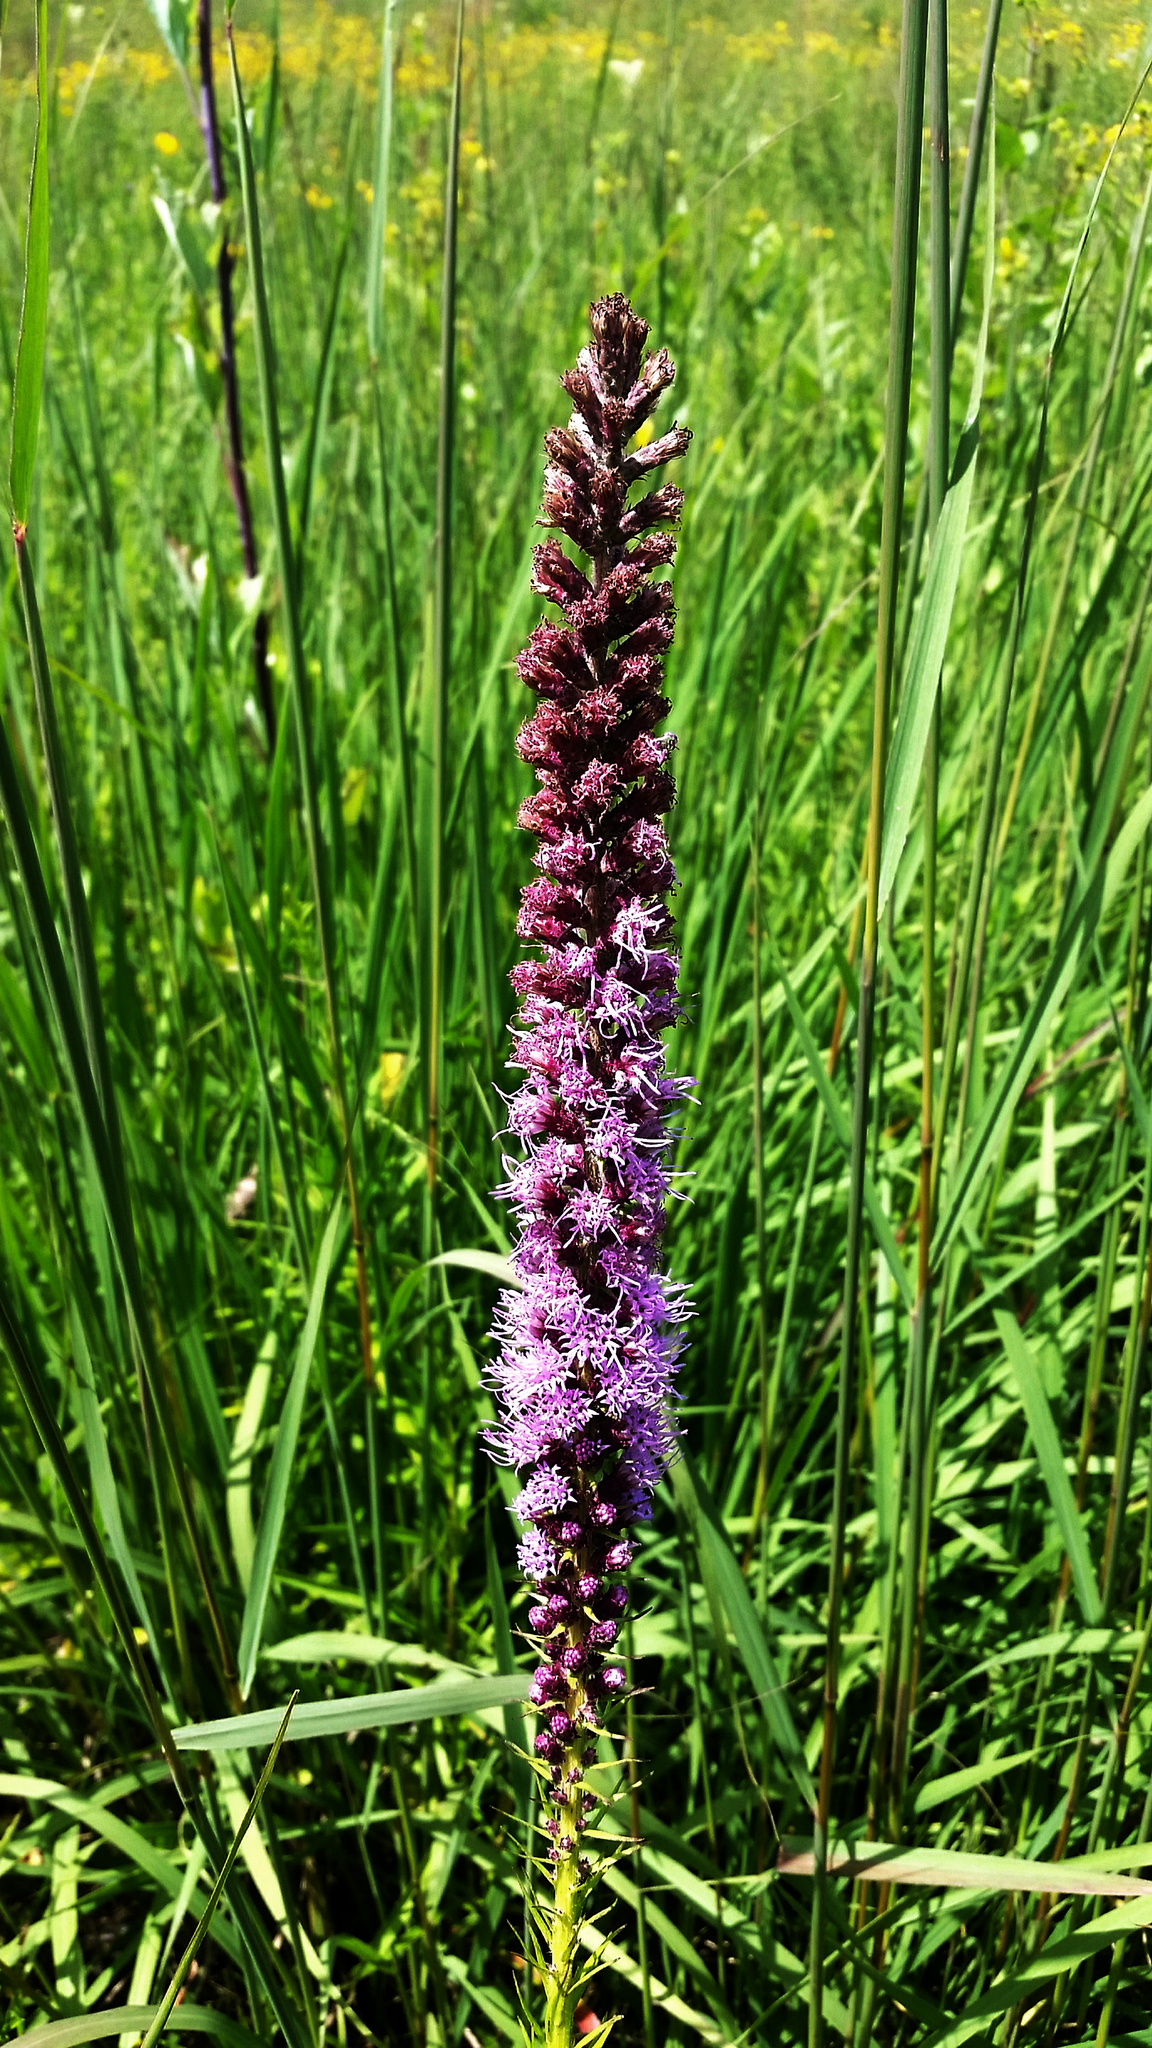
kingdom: Plantae
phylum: Tracheophyta
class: Magnoliopsida
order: Asterales
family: Asteraceae
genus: Liatris
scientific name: Liatris pycnostachya
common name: Cattail gayfeather
